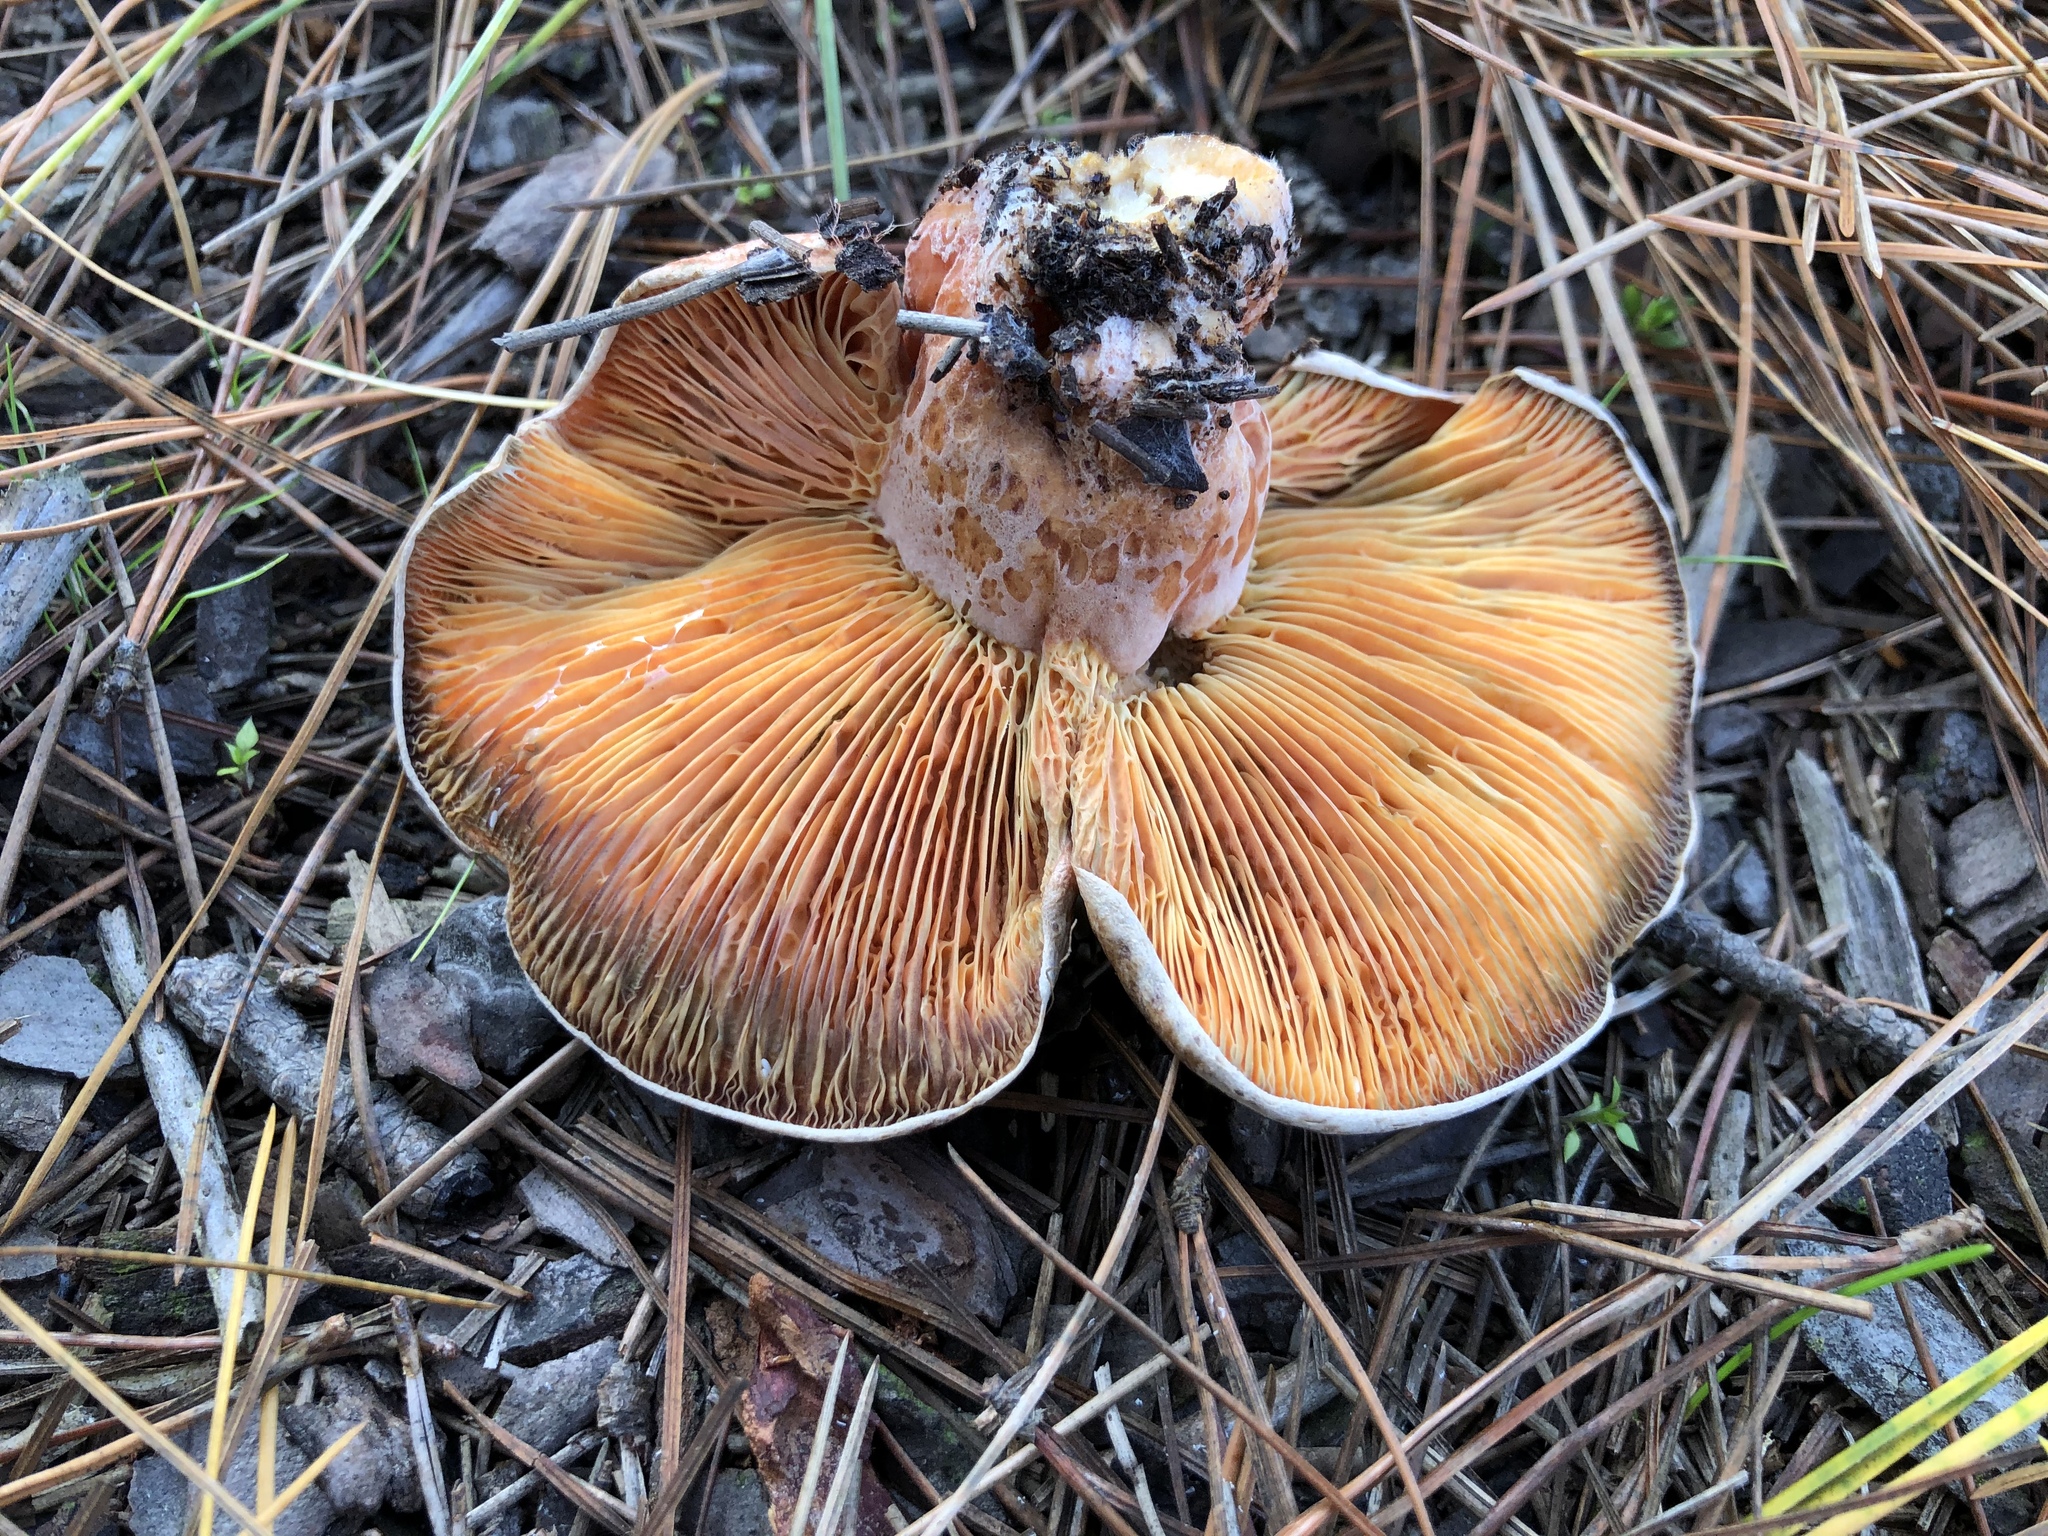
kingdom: Fungi
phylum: Basidiomycota
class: Agaricomycetes
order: Russulales
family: Russulaceae
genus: Lactarius
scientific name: Lactarius deliciosus
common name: Saffron milk-cap
